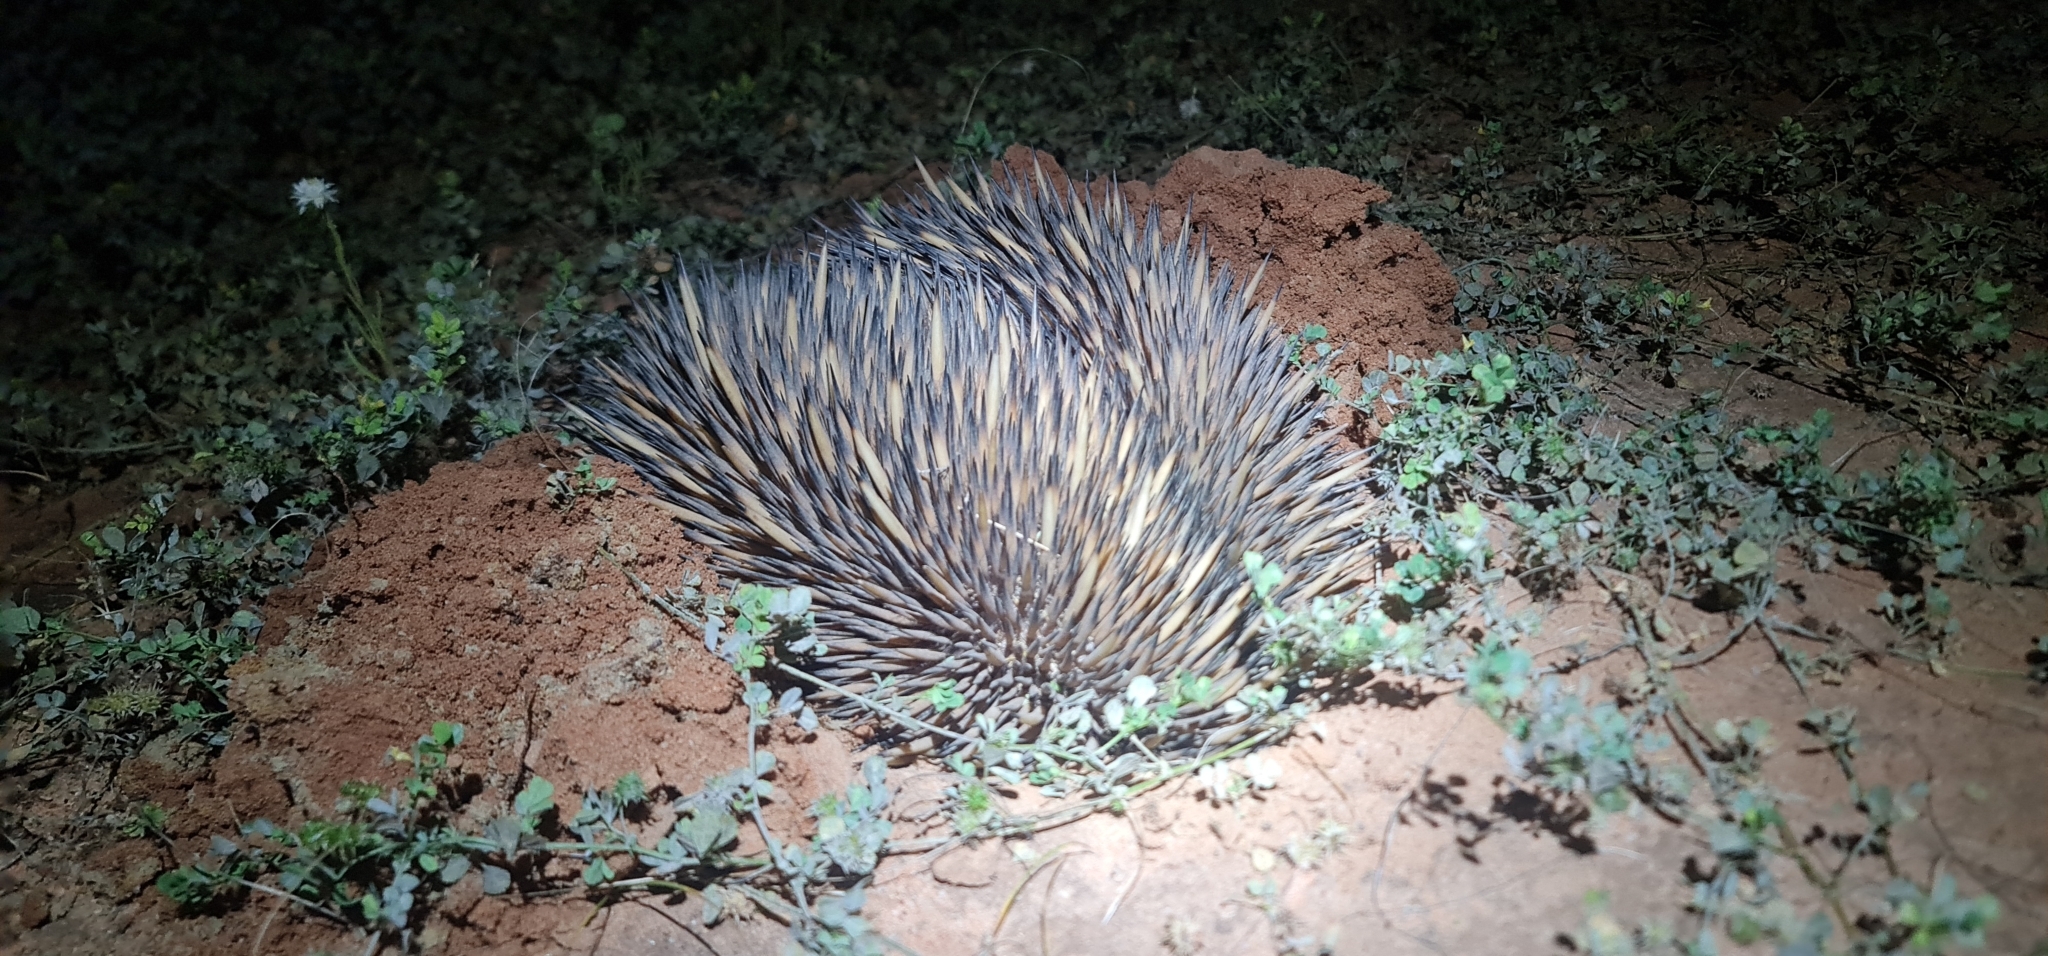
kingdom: Animalia
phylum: Chordata
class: Mammalia
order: Monotremata
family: Tachyglossidae
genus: Tachyglossus
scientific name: Tachyglossus aculeatus
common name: Short-beaked echidna
